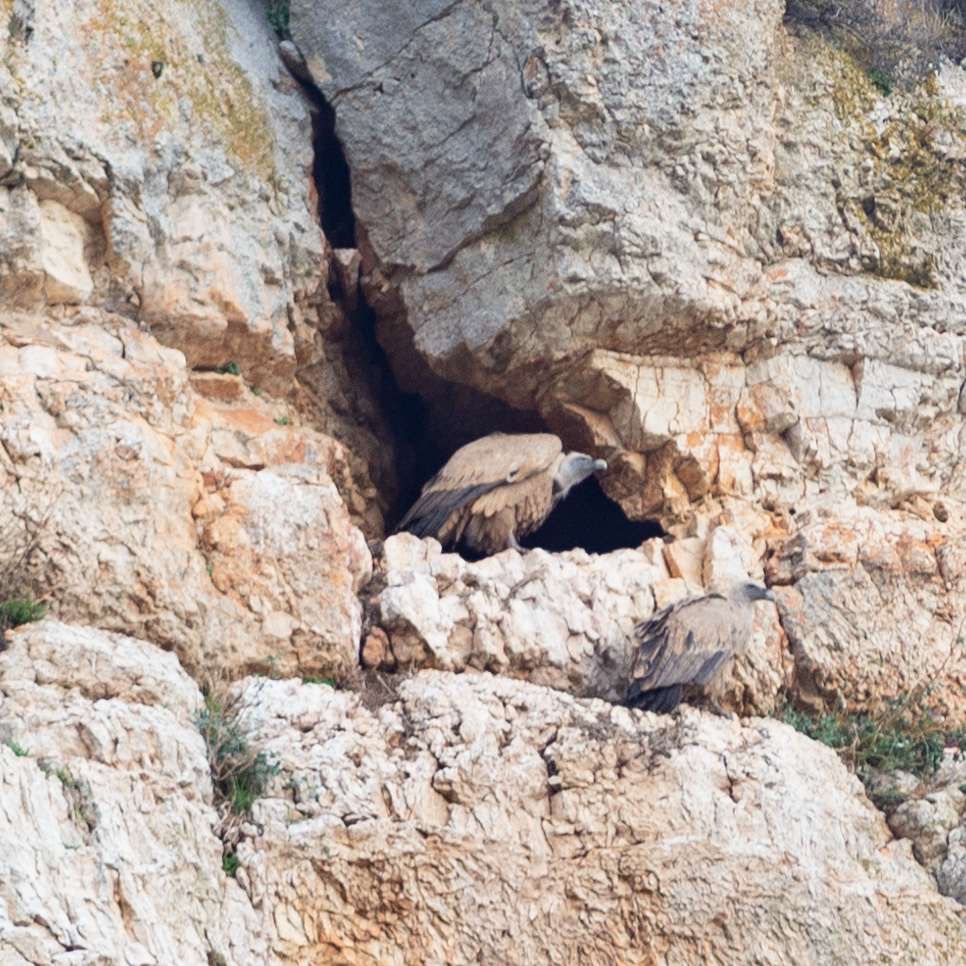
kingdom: Animalia
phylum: Chordata
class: Aves
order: Accipitriformes
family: Accipitridae
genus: Gyps
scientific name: Gyps fulvus
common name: Griffon vulture
